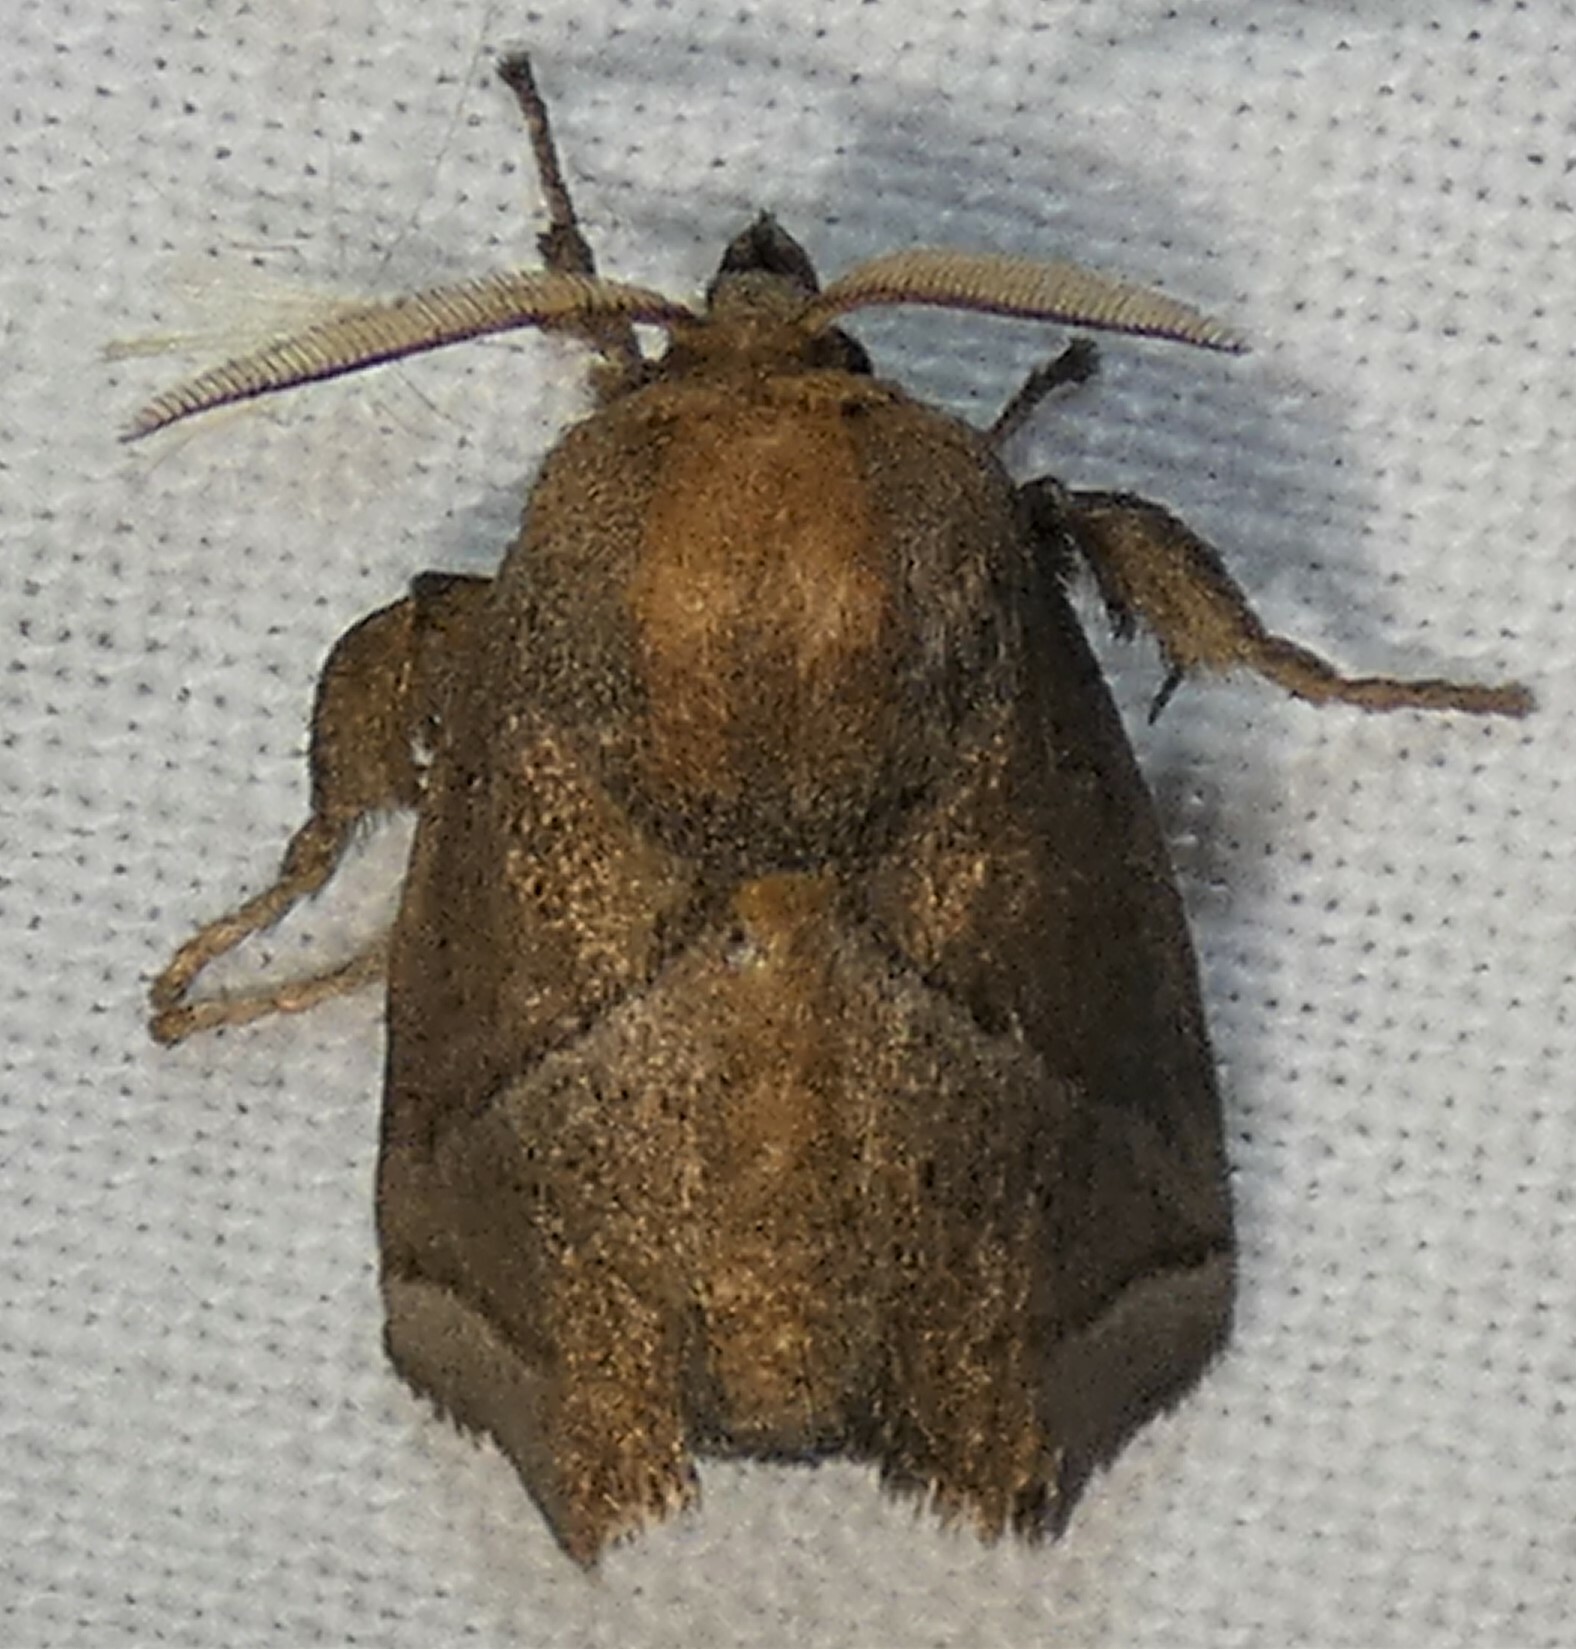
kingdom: Animalia
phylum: Arthropoda
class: Insecta
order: Lepidoptera
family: Limacodidae
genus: Natada
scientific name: Natada nasoni
